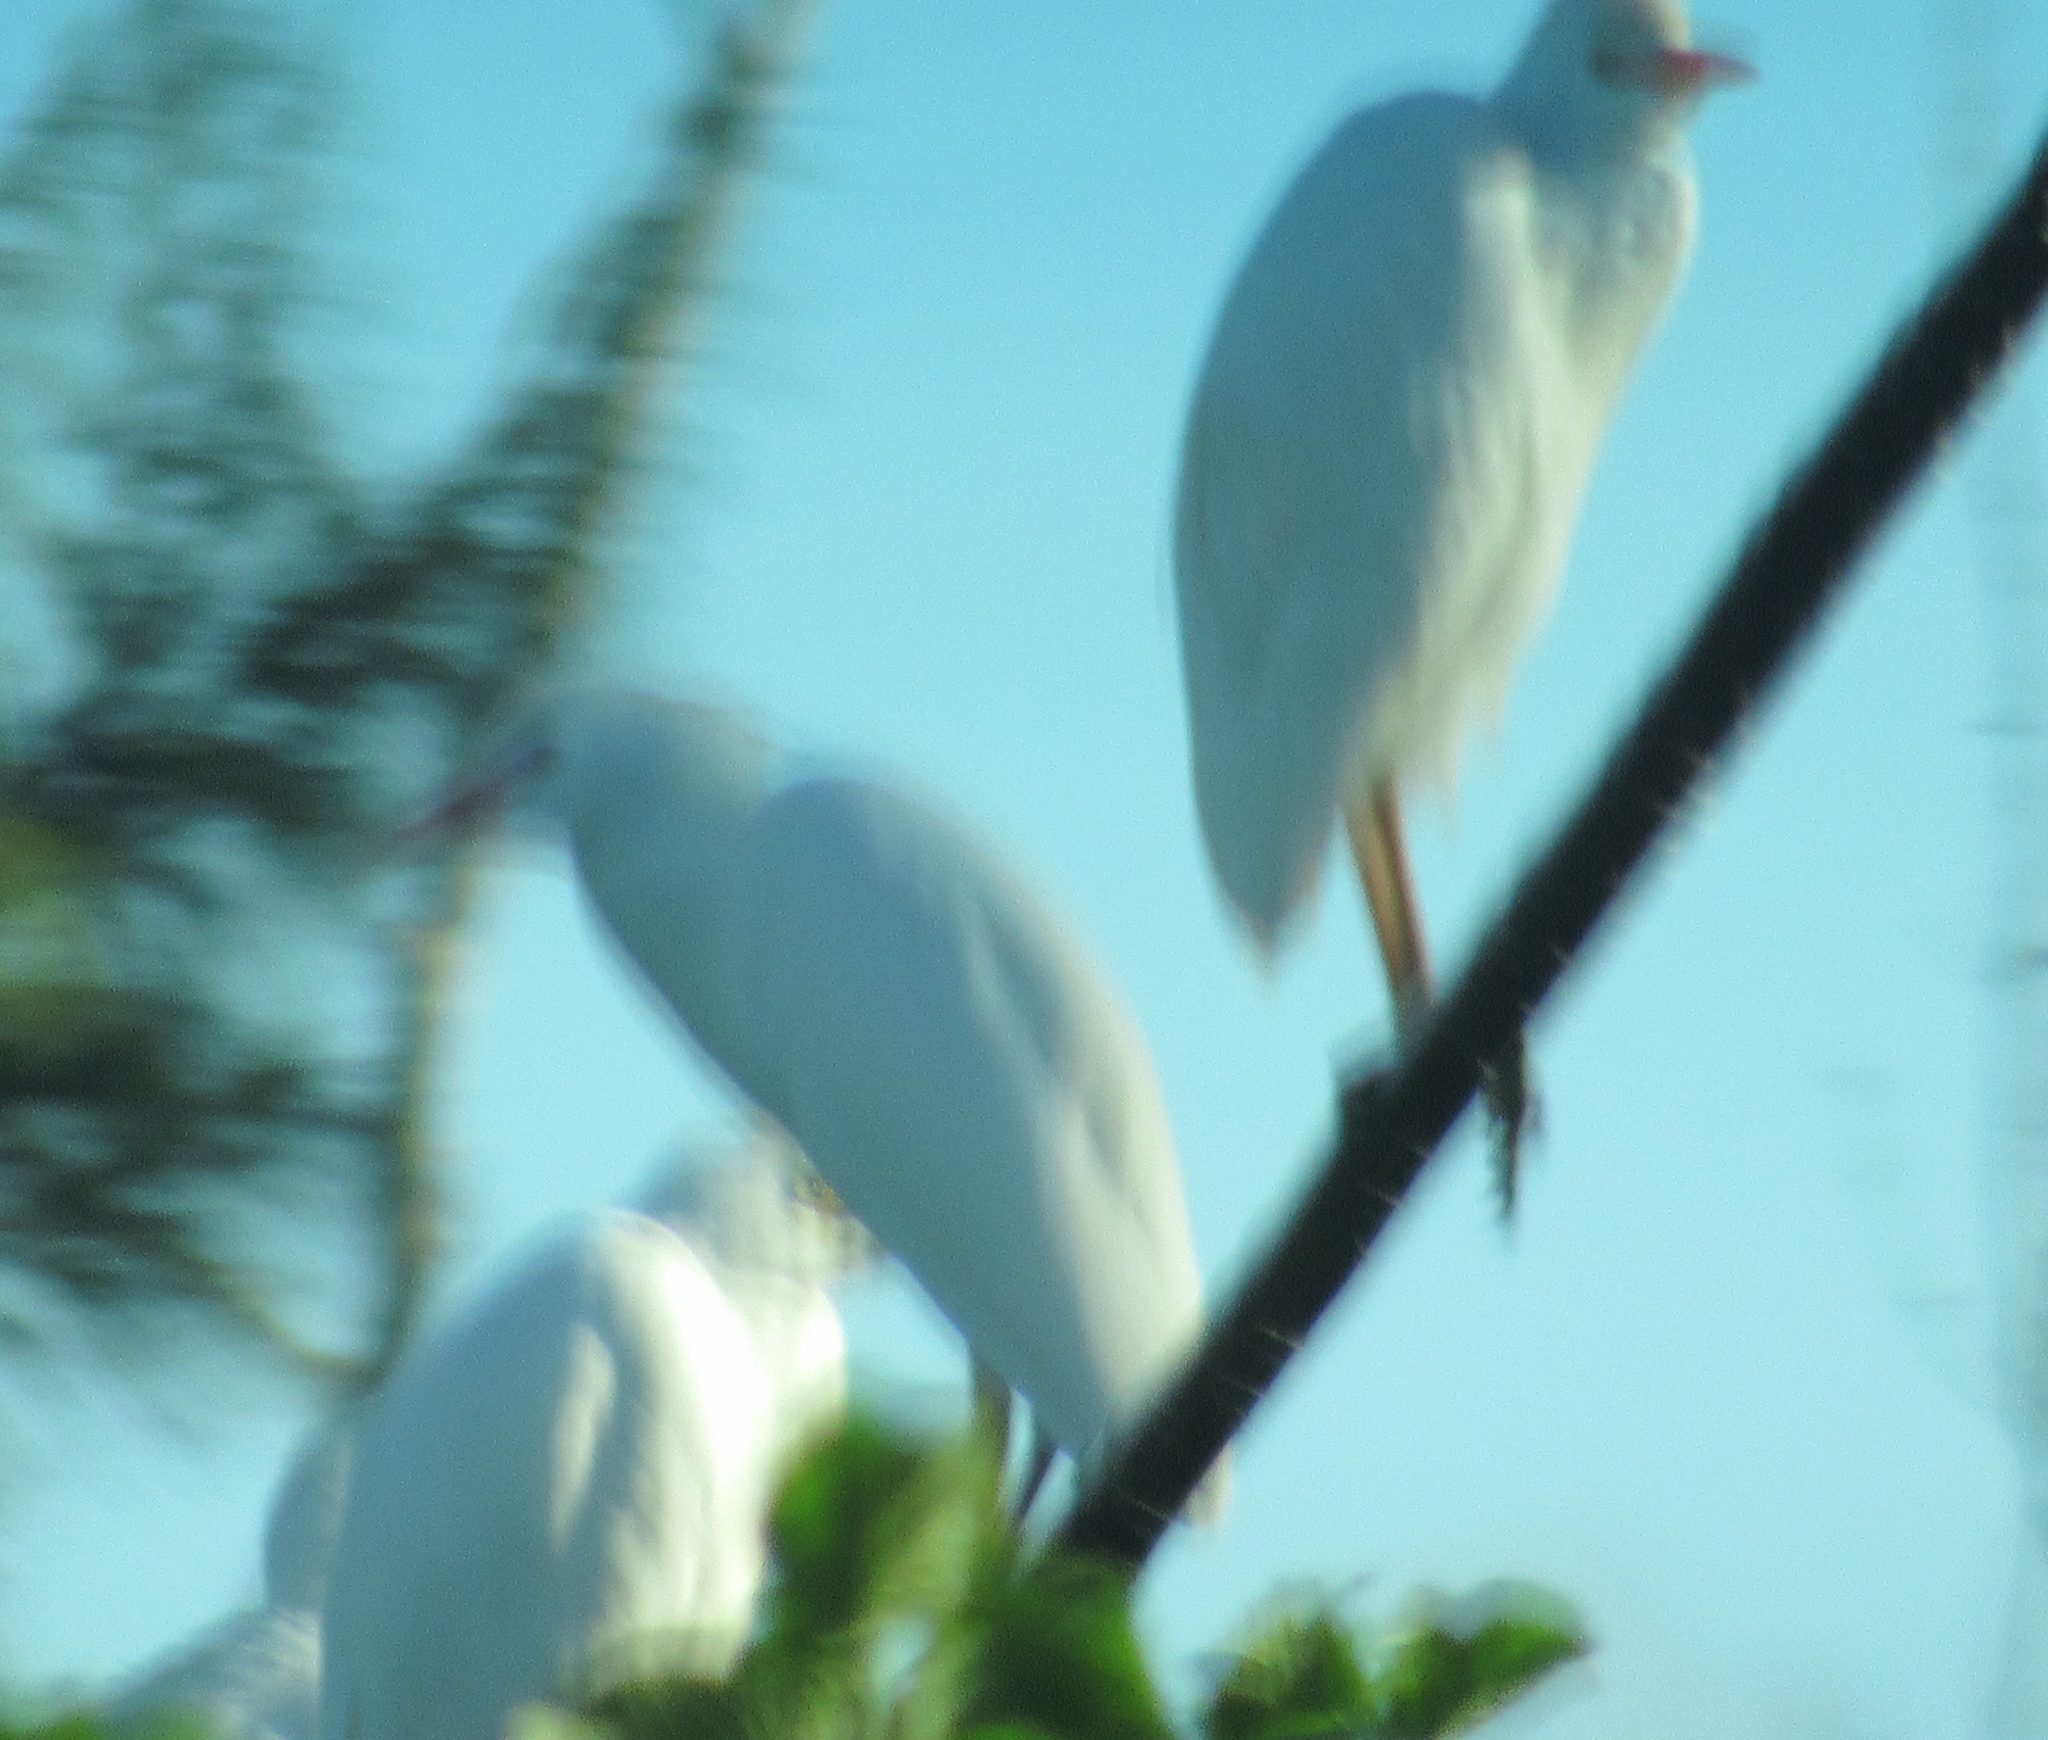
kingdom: Animalia
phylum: Chordata
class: Aves
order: Pelecaniformes
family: Ardeidae
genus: Bubulcus
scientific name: Bubulcus ibis
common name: Cattle egret
